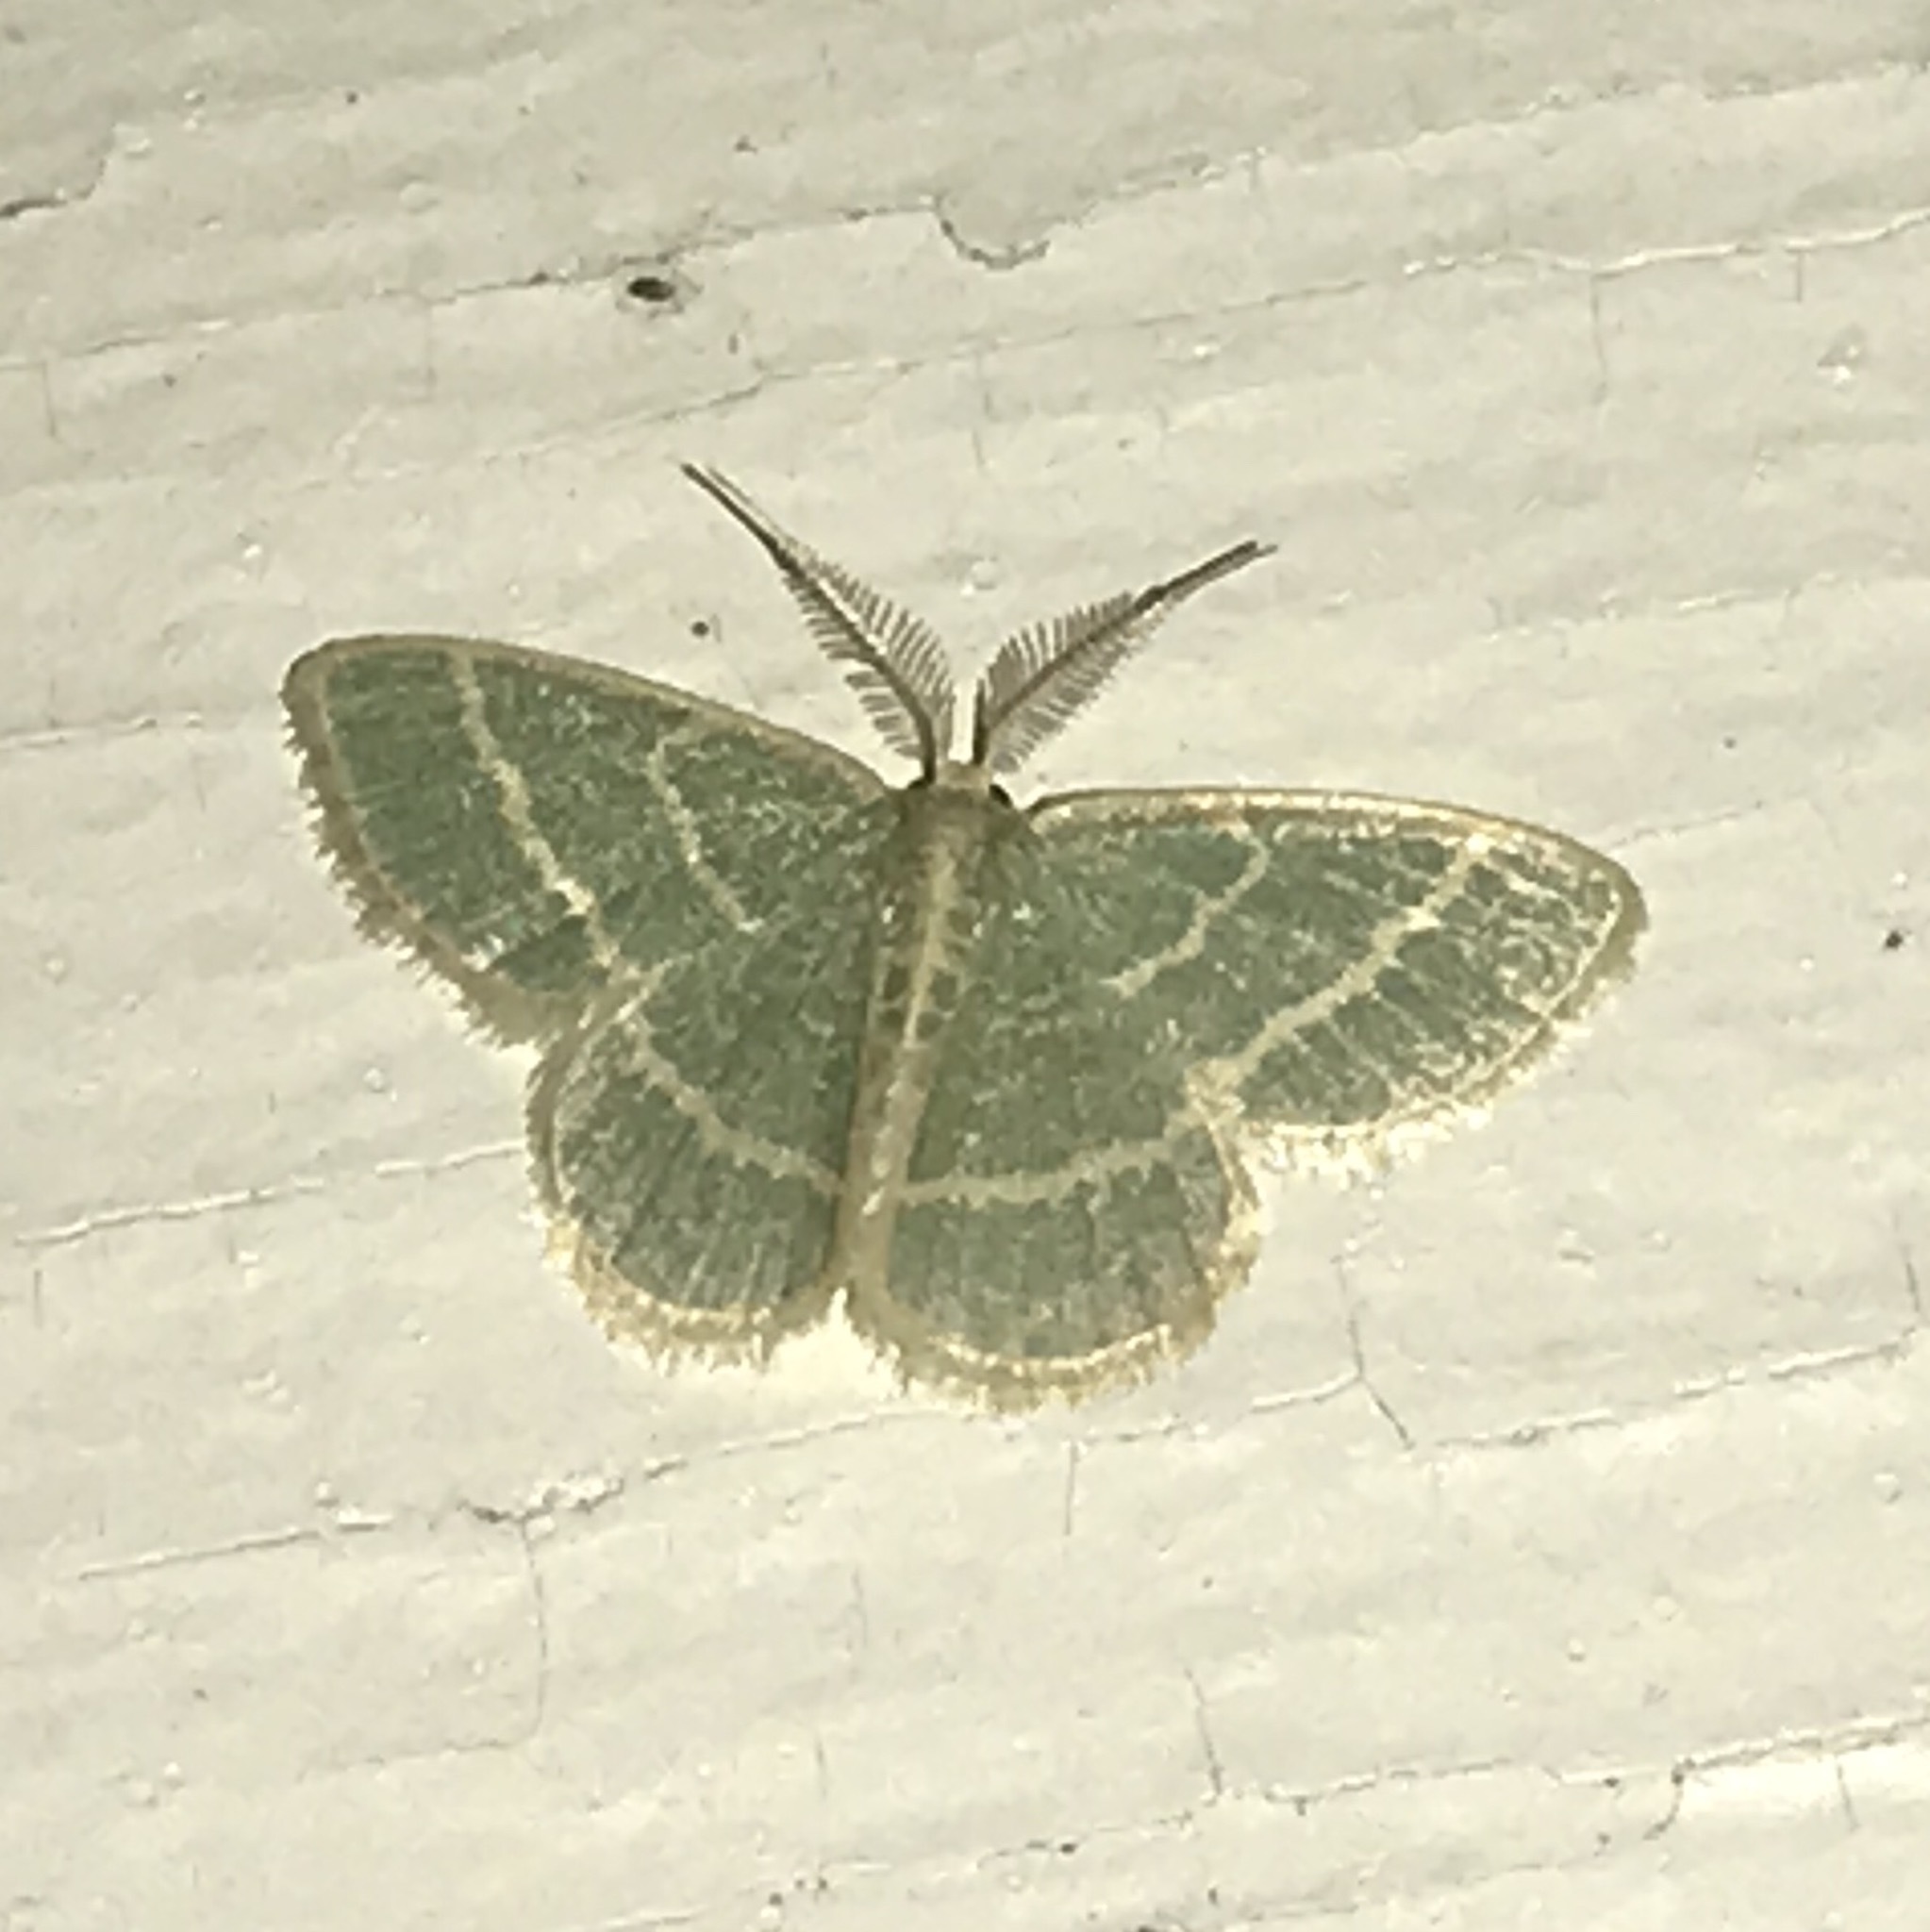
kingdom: Animalia
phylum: Arthropoda
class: Insecta
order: Lepidoptera
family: Geometridae
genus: Chlorochlamys
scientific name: Chlorochlamys chloroleucaria
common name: Blackberry looper
